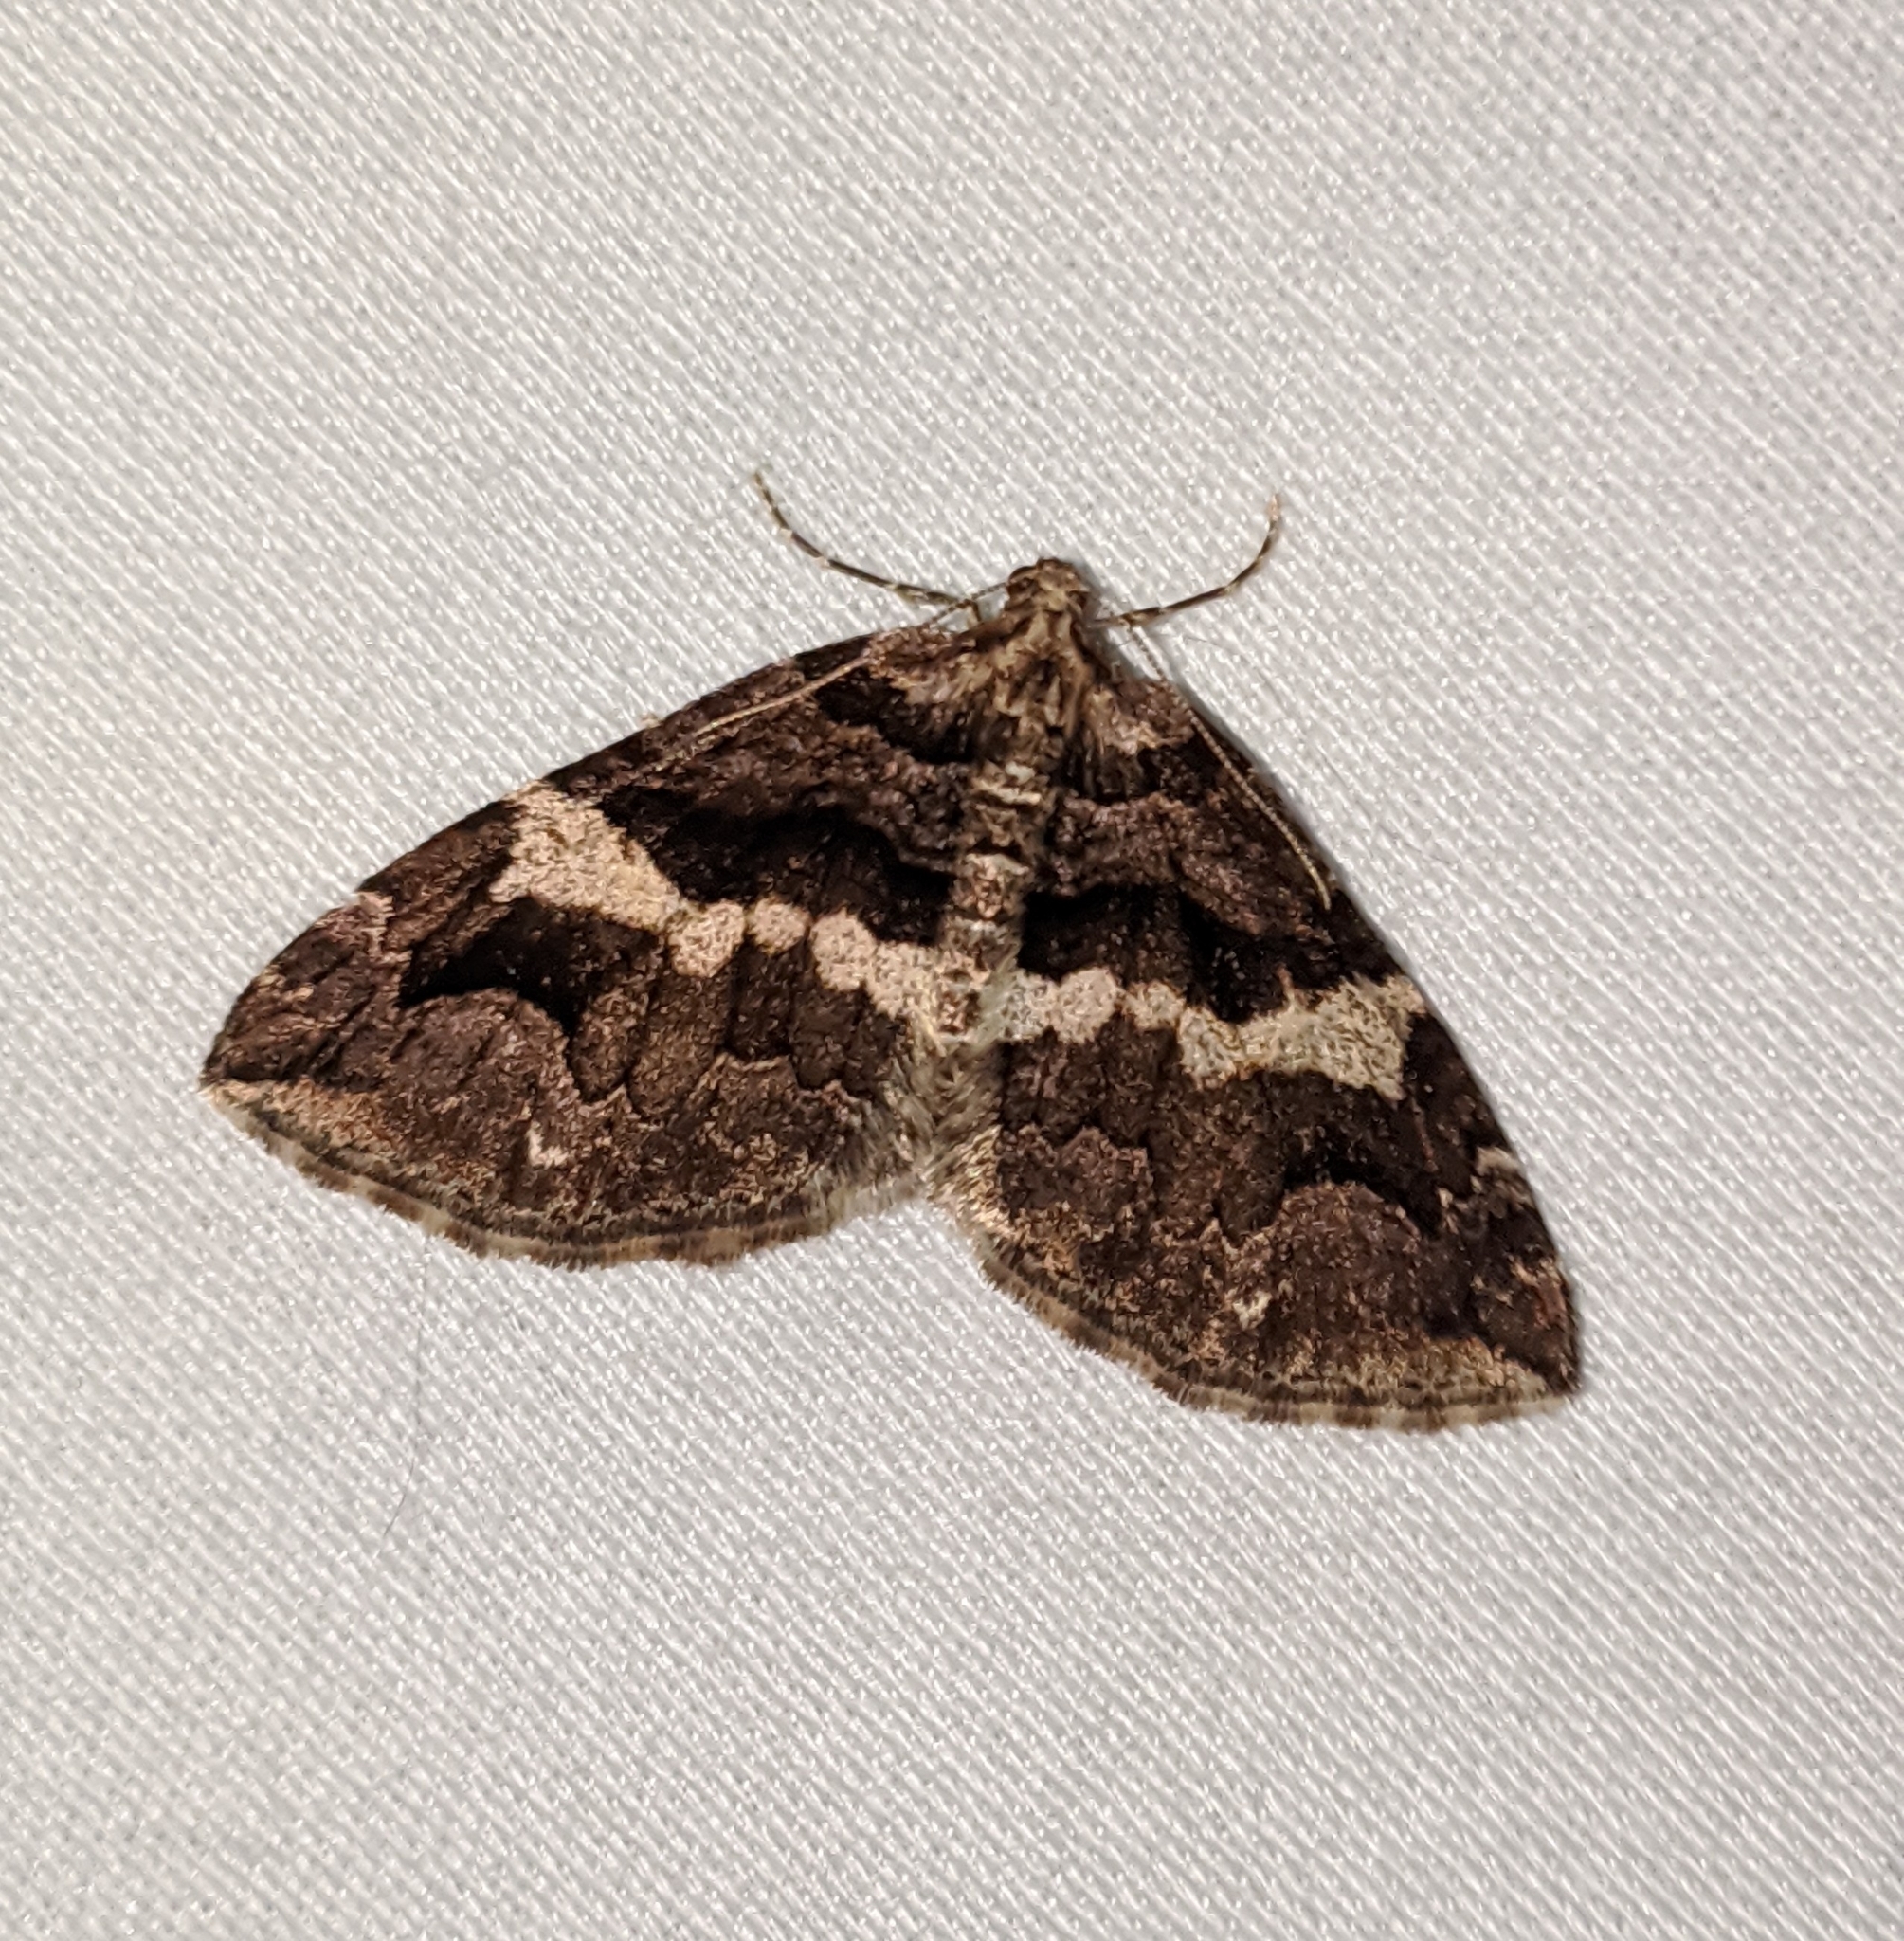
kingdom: Animalia
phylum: Arthropoda
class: Insecta
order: Lepidoptera
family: Geometridae
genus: Anticlea
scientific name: Anticlea vasiliata
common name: Variable carpet
